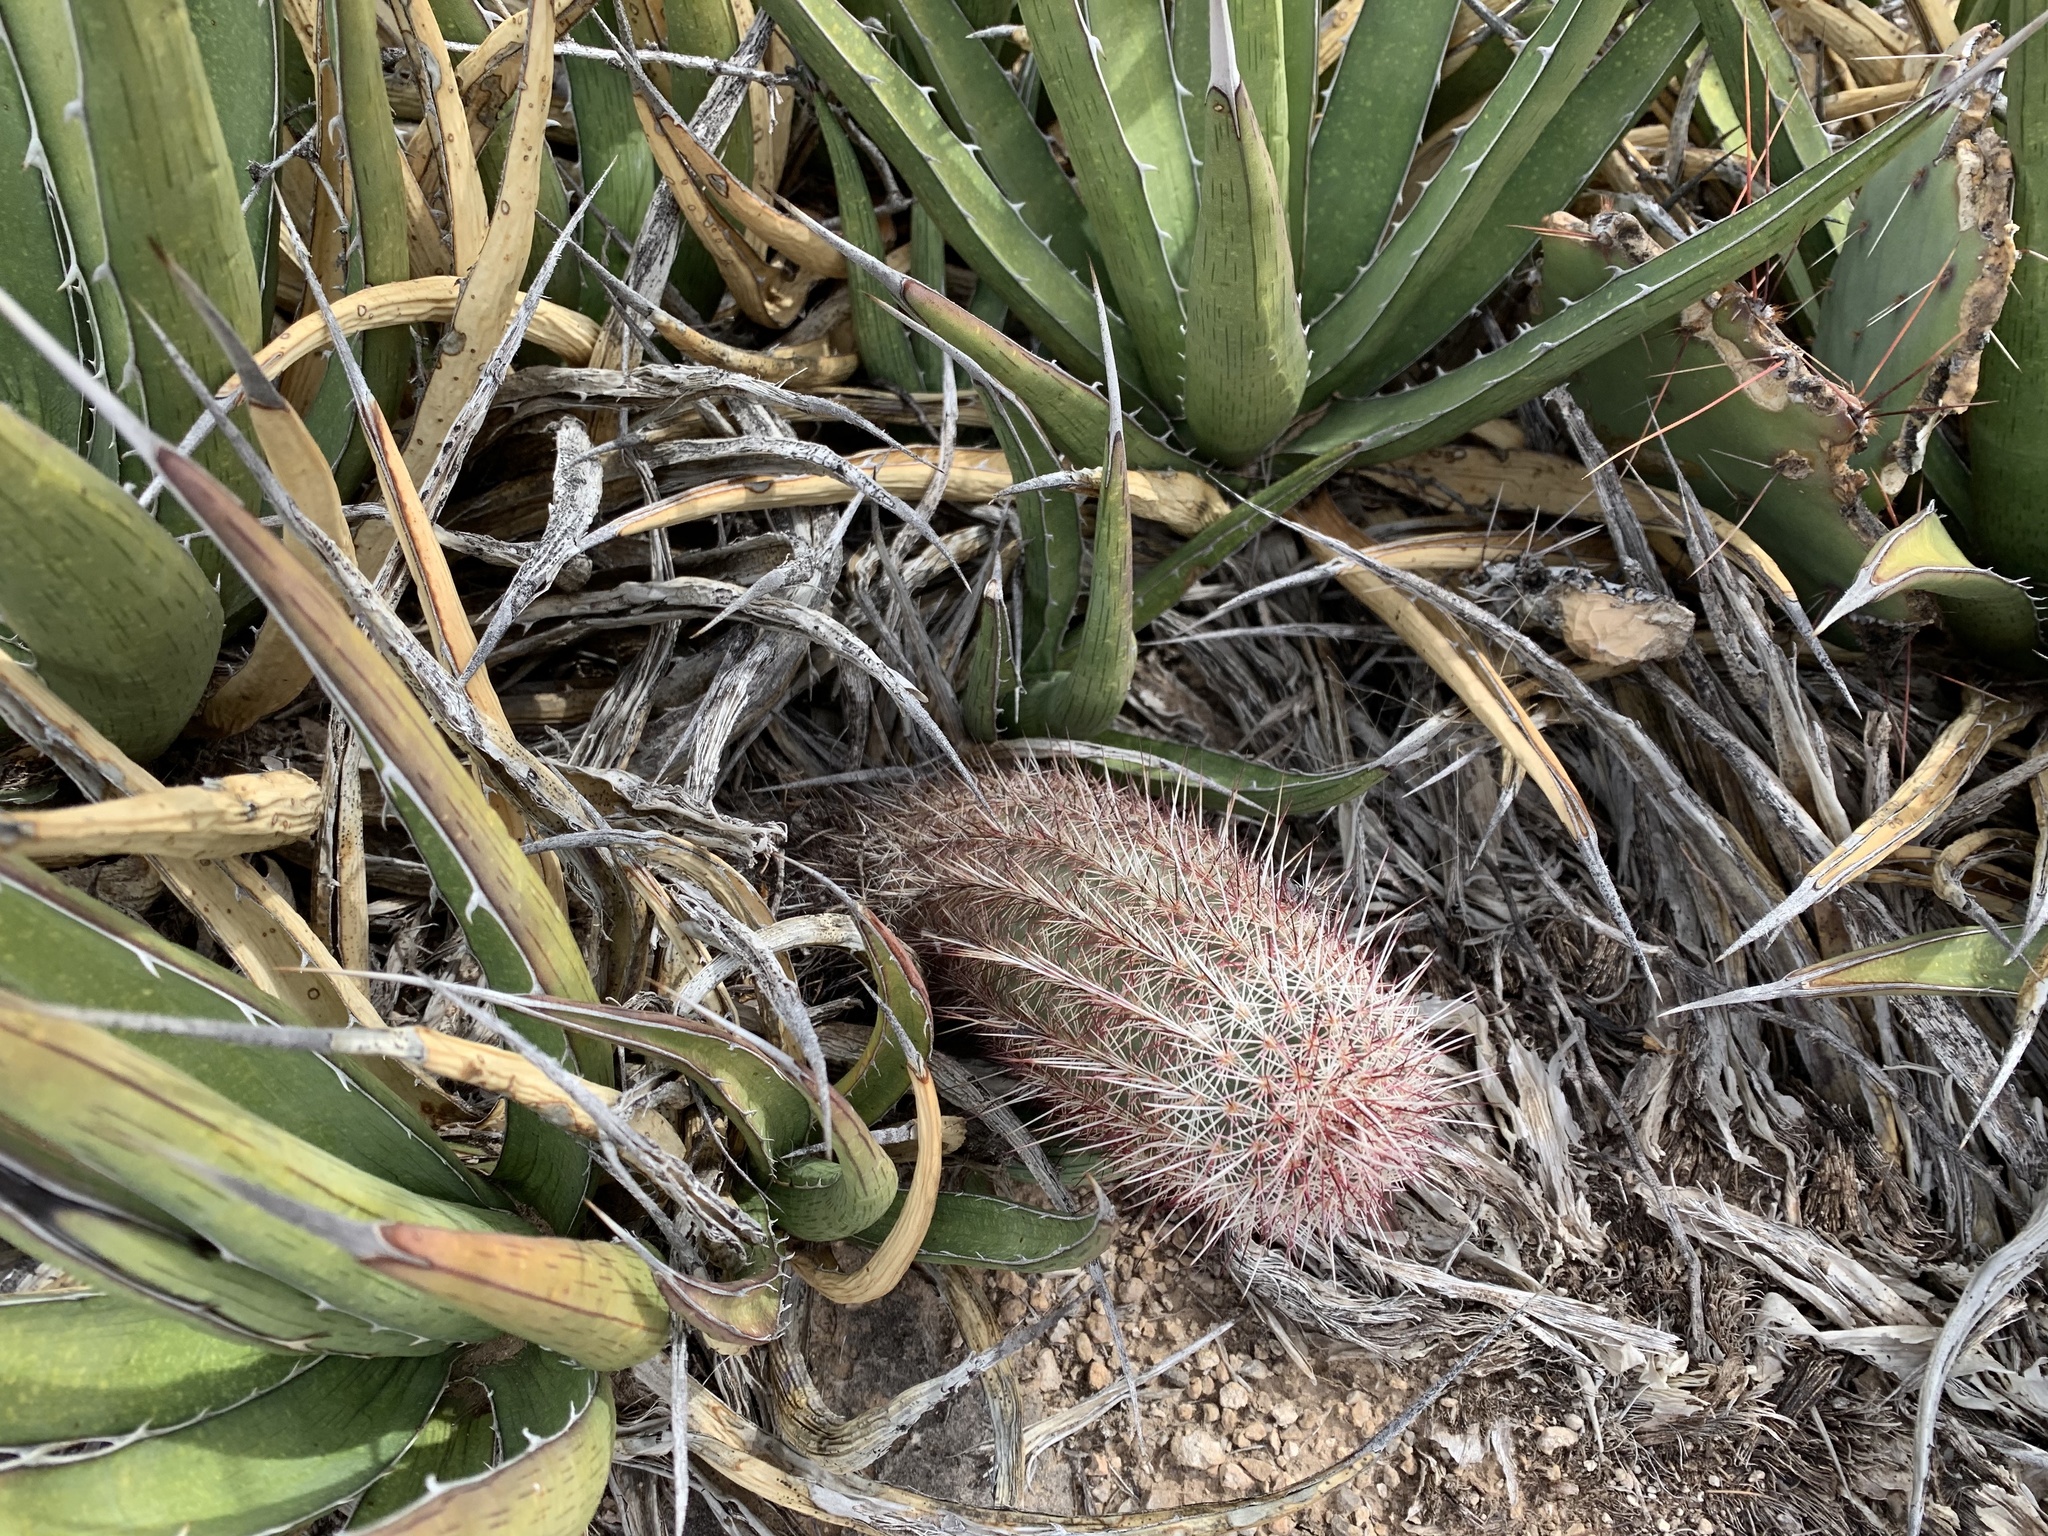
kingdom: Plantae
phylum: Tracheophyta
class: Magnoliopsida
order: Caryophyllales
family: Cactaceae
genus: Echinocereus
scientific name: Echinocereus viridiflorus
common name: Nylon hedgehog cactus
